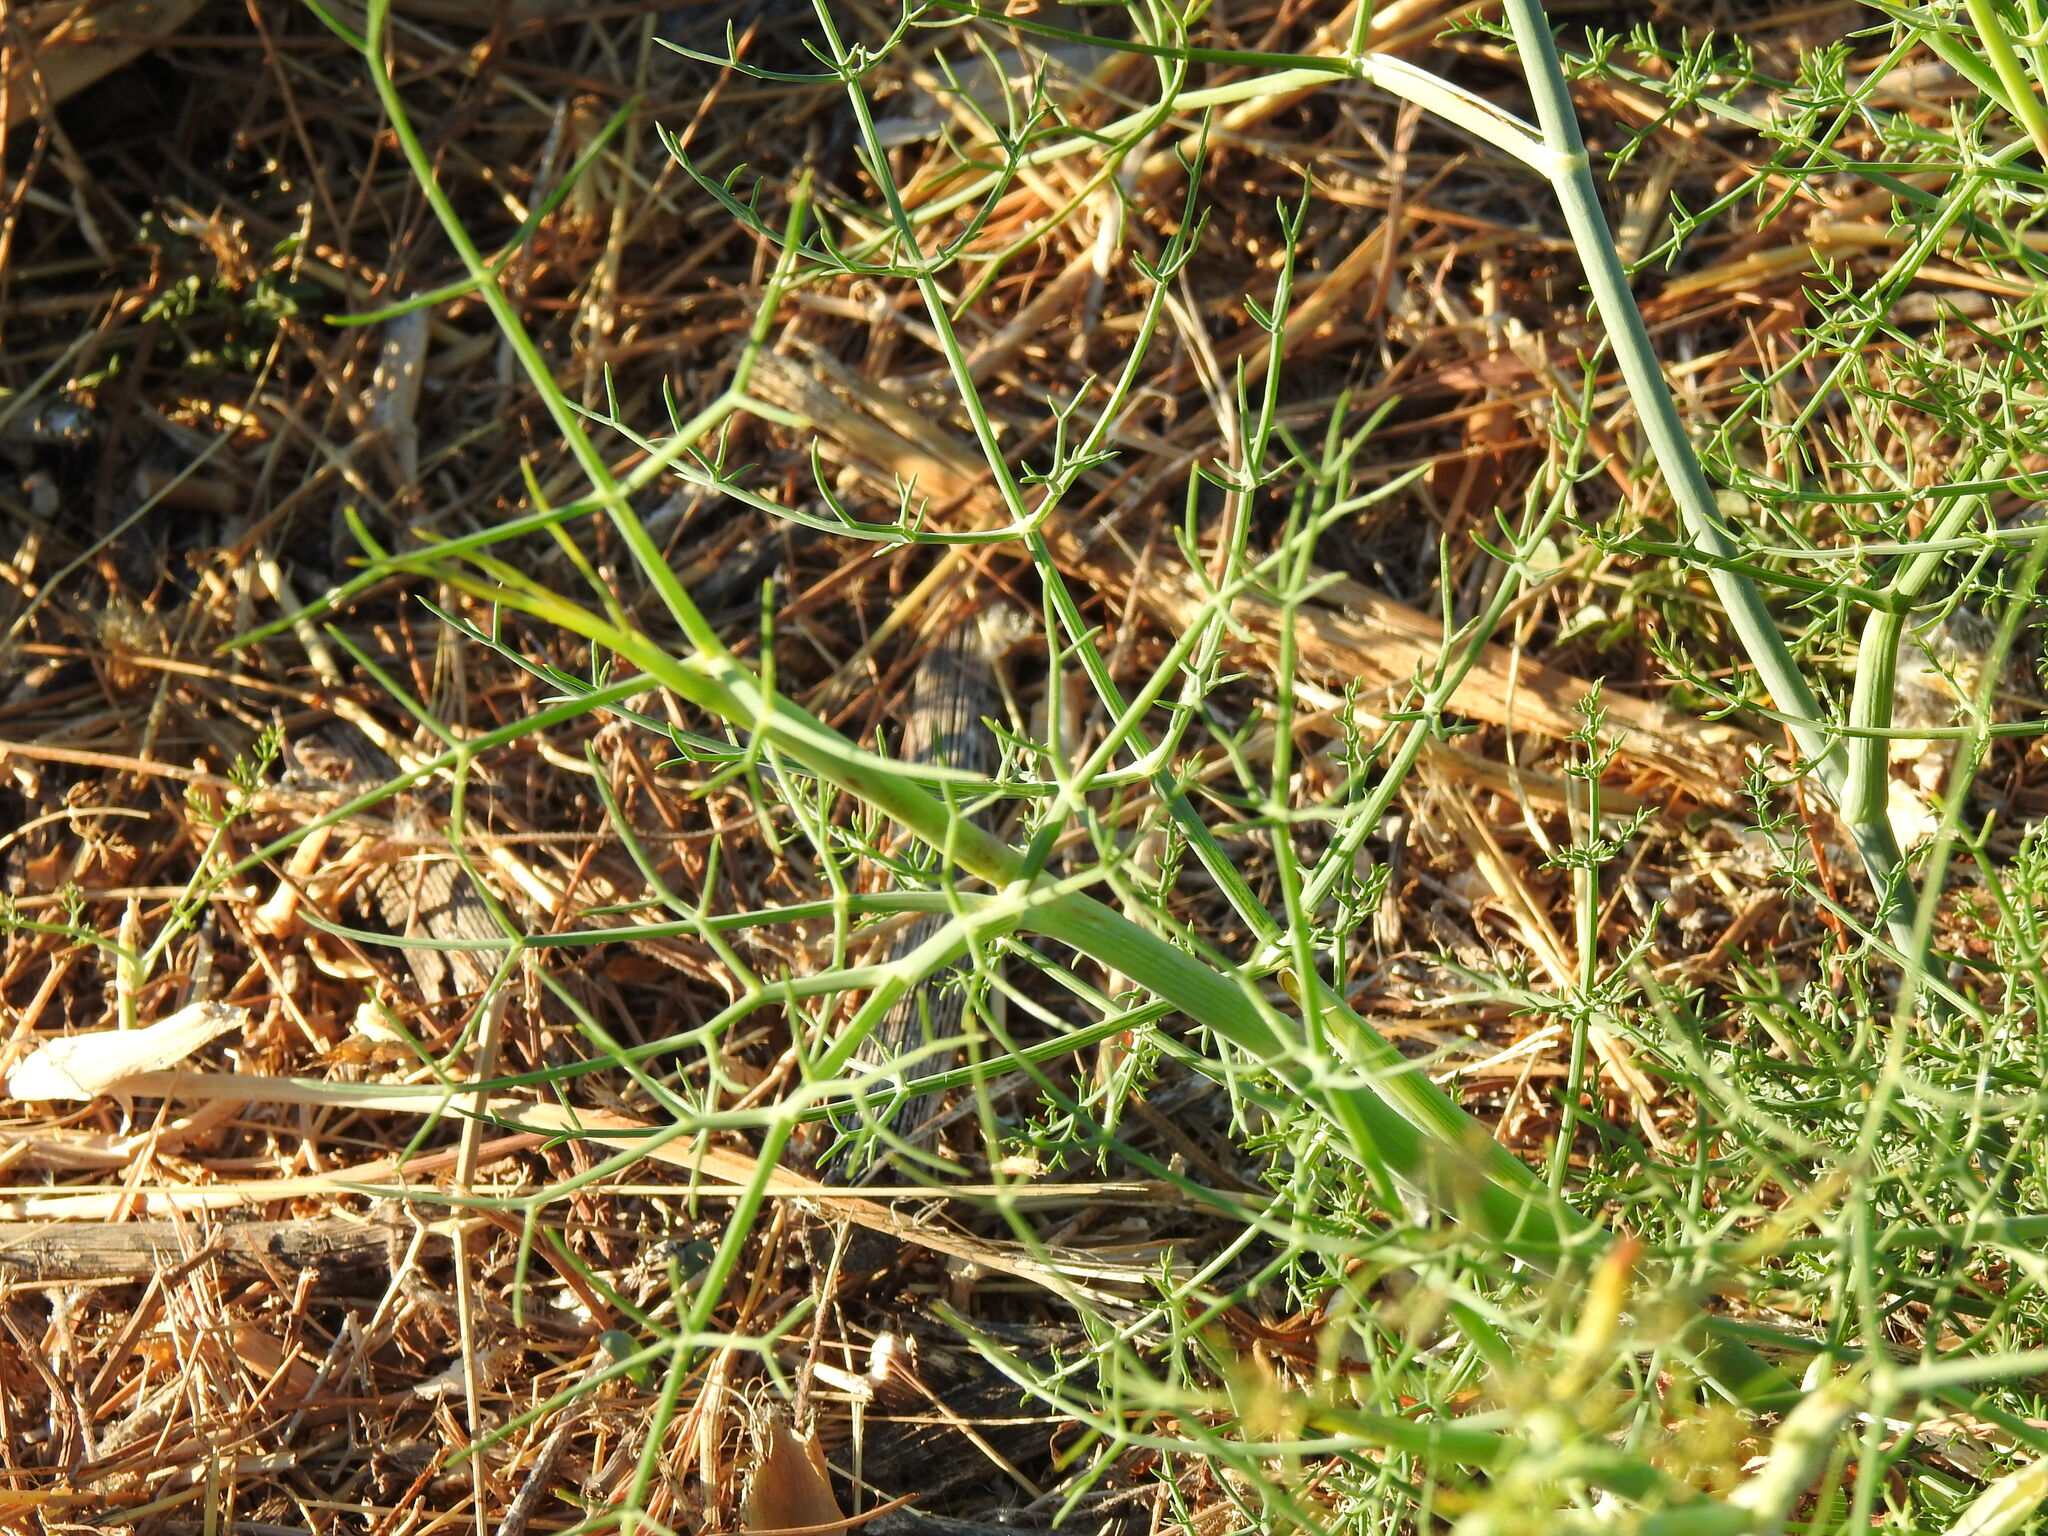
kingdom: Plantae
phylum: Tracheophyta
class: Magnoliopsida
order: Apiales
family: Apiaceae
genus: Foeniculum
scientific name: Foeniculum vulgare
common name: Fennel
